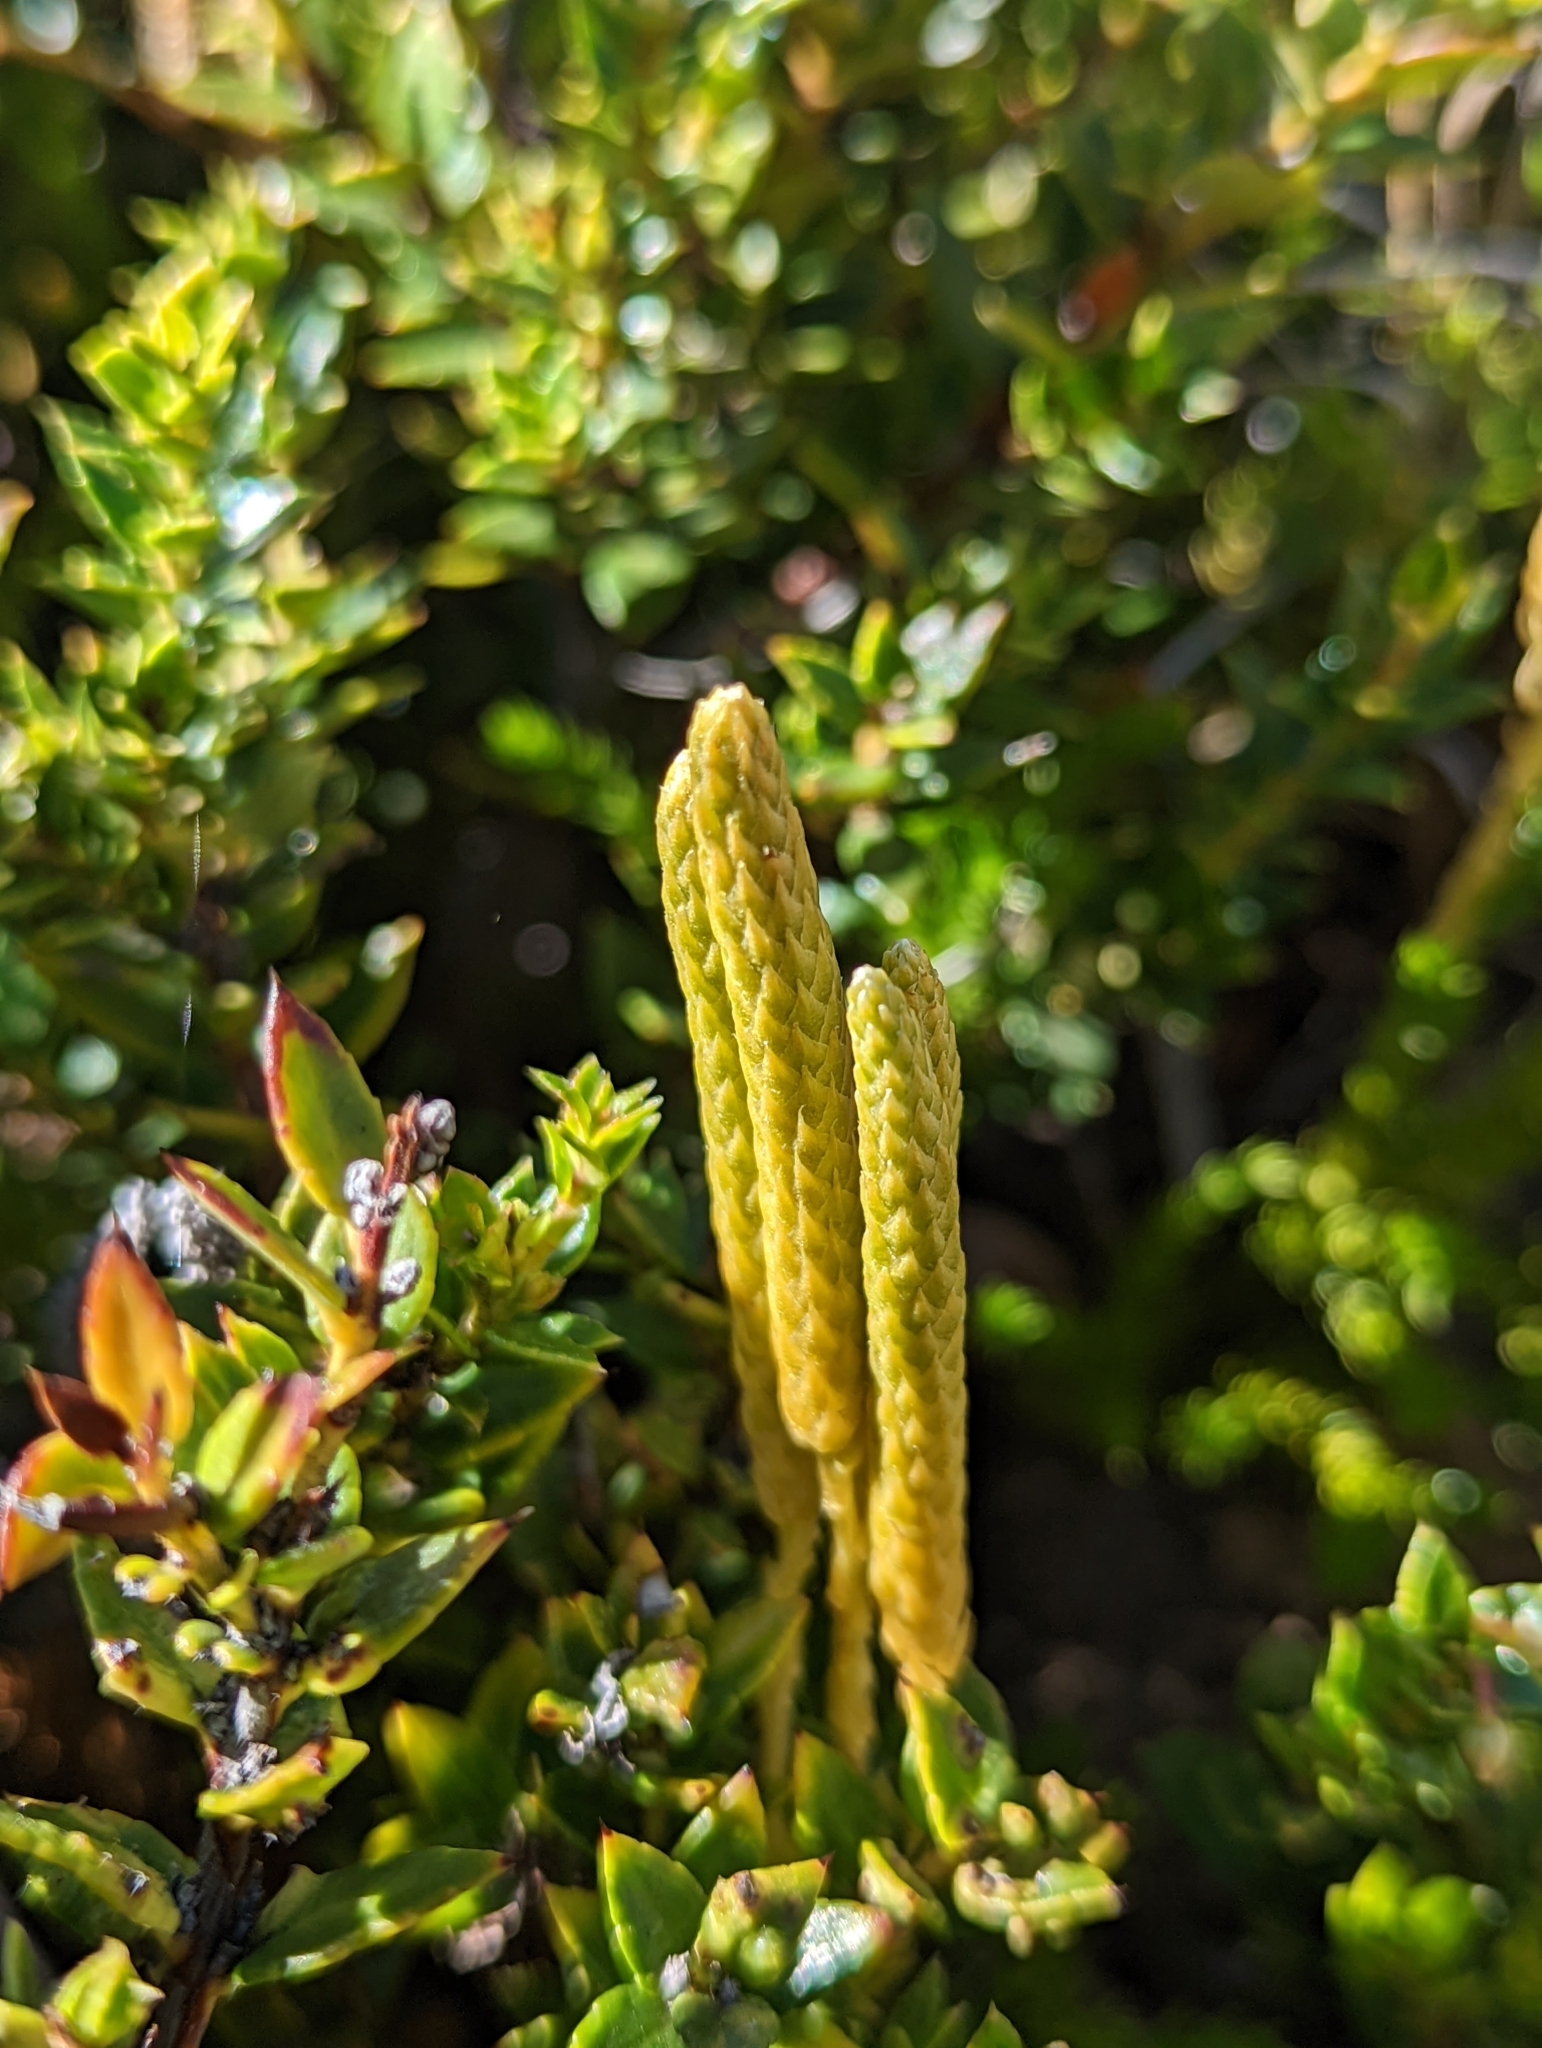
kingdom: Plantae
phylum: Tracheophyta
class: Lycopodiopsida
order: Lycopodiales
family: Lycopodiaceae
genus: Austrolycopodium
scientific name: Austrolycopodium magellanicum
